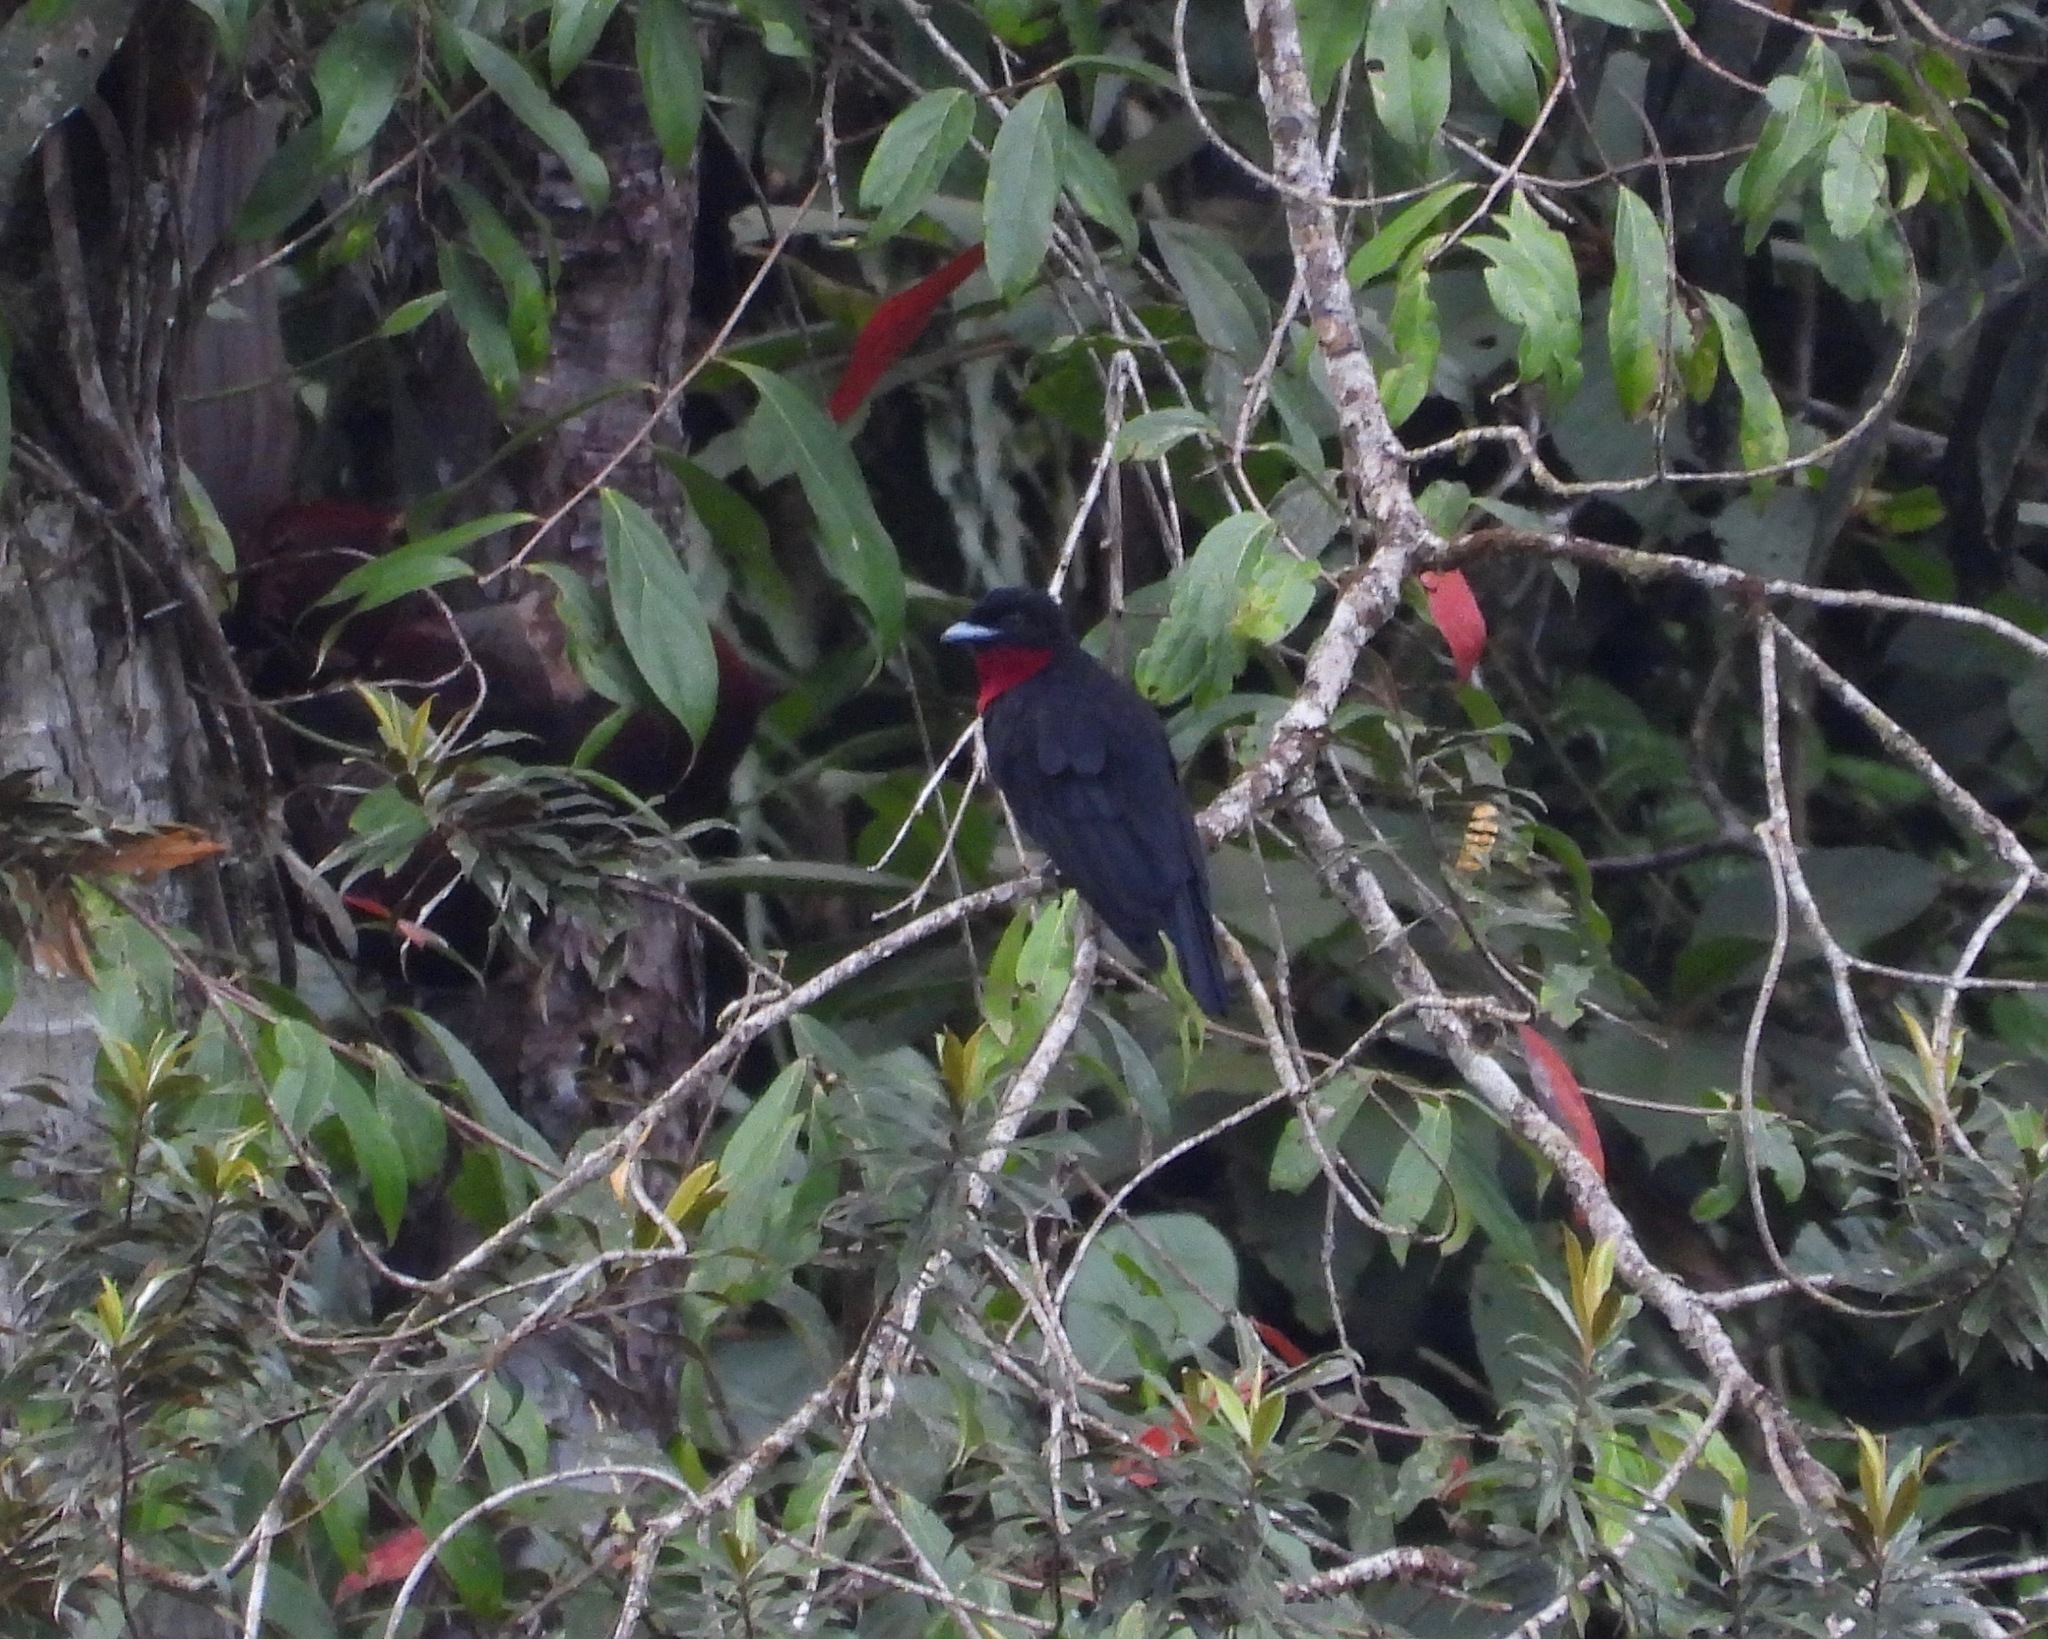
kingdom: Animalia
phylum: Chordata
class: Aves
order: Passeriformes
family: Cotingidae
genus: Querula
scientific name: Querula purpurata
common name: Purple-throated fruitcrow
